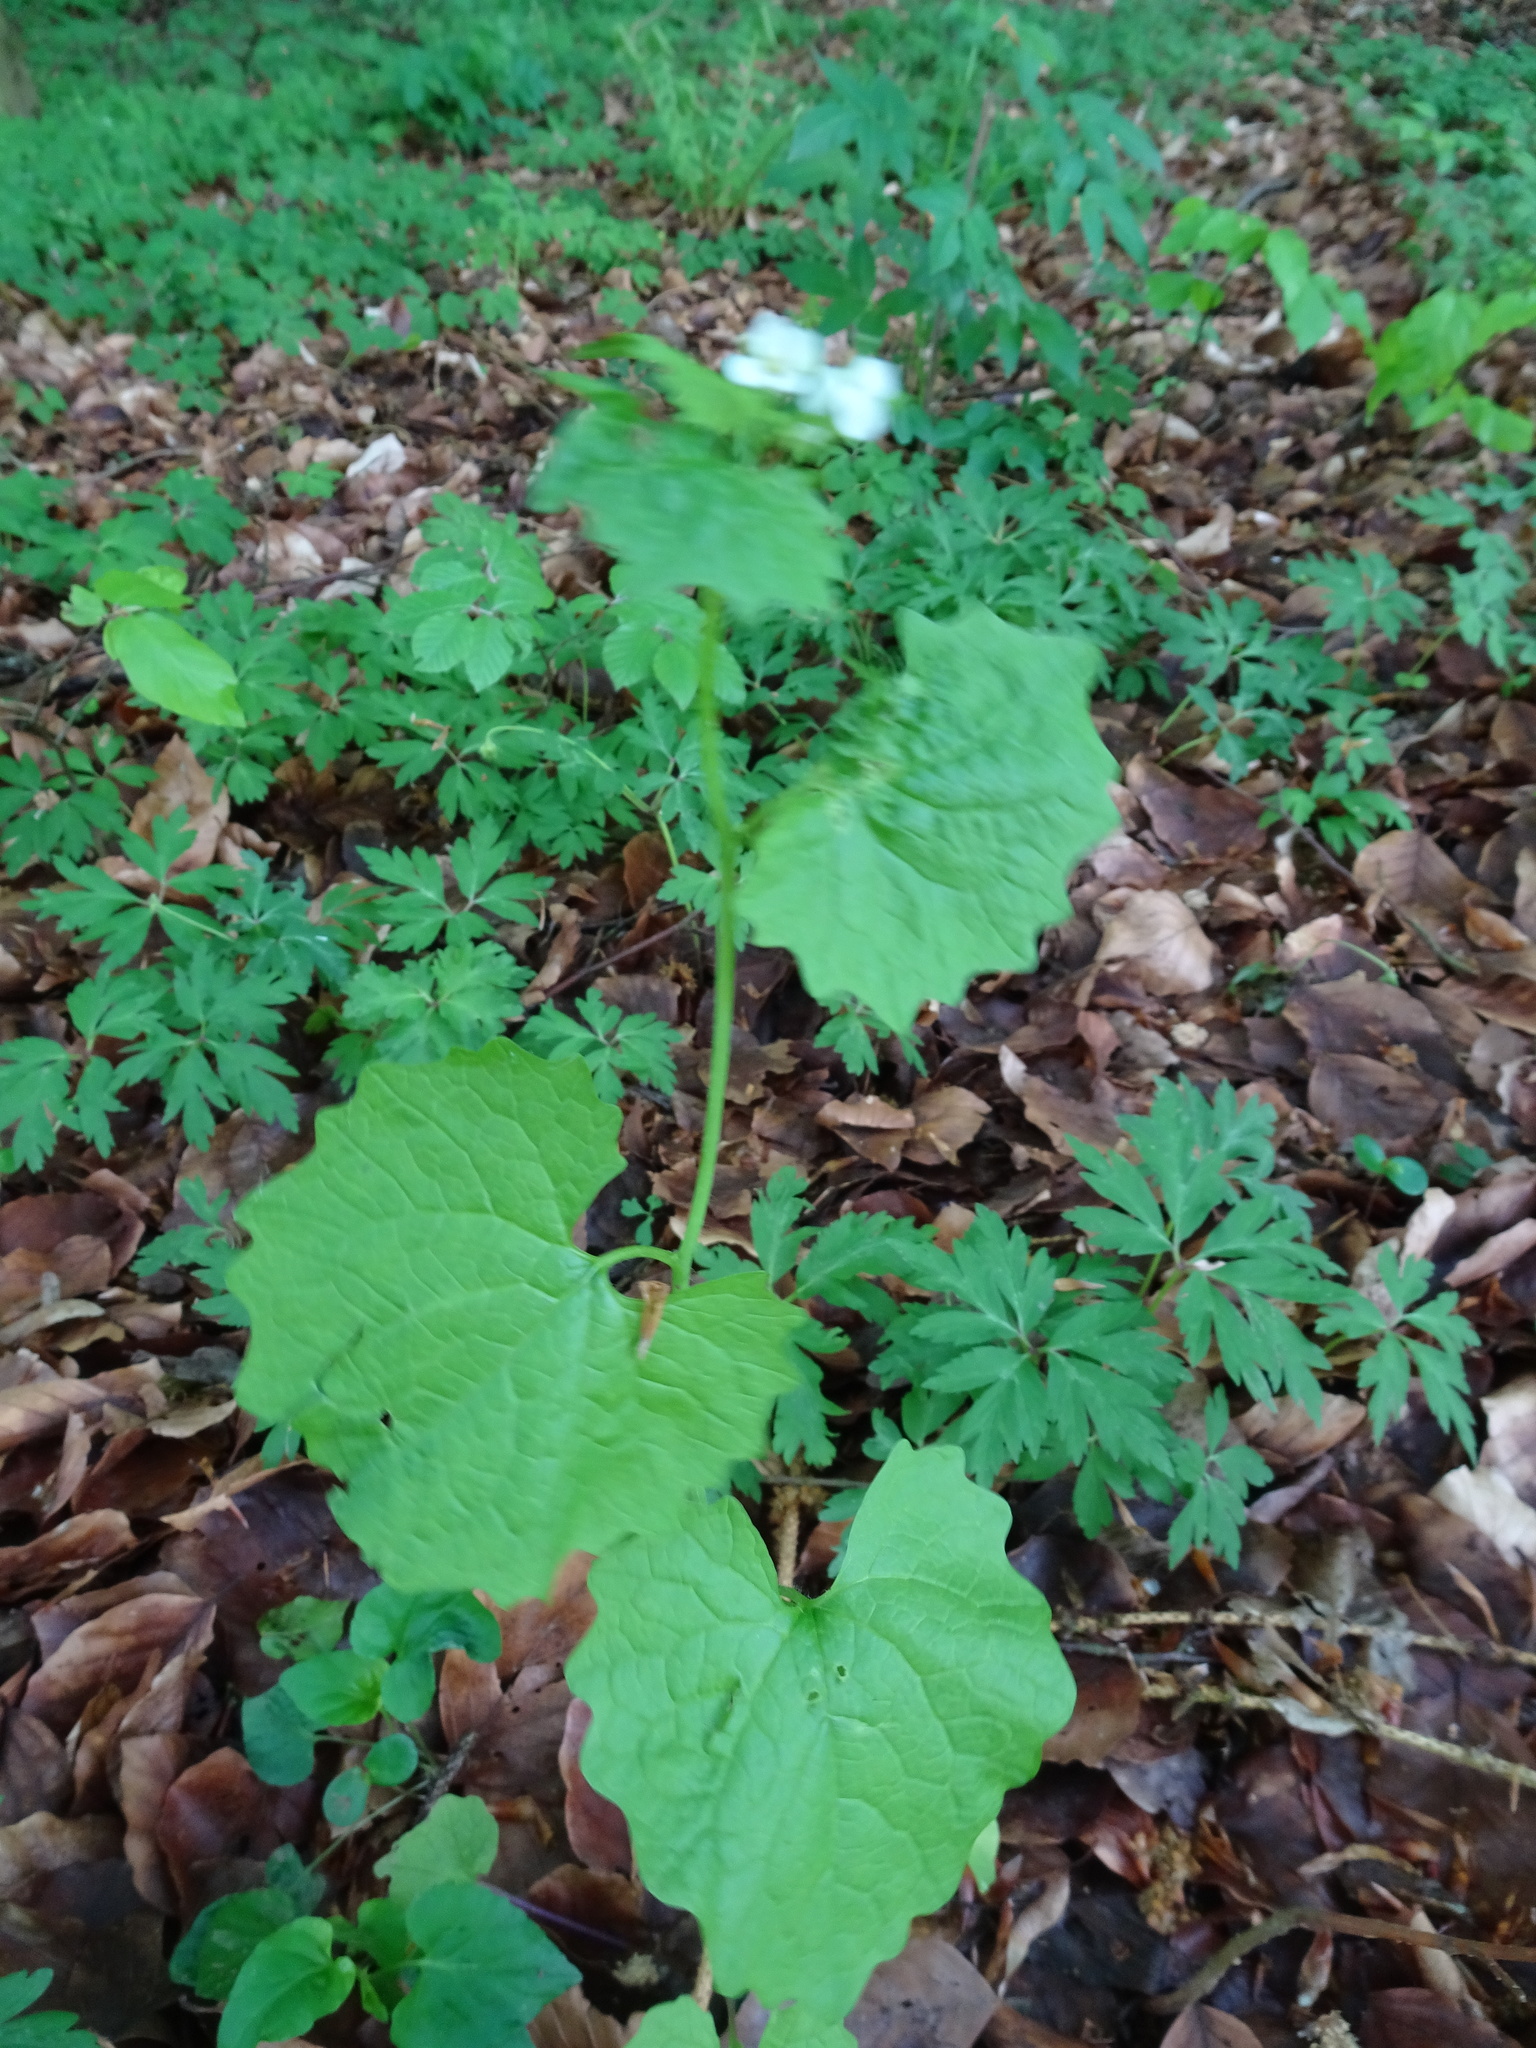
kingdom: Plantae
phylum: Tracheophyta
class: Magnoliopsida
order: Brassicales
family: Brassicaceae
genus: Alliaria
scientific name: Alliaria petiolata
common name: Garlic mustard
